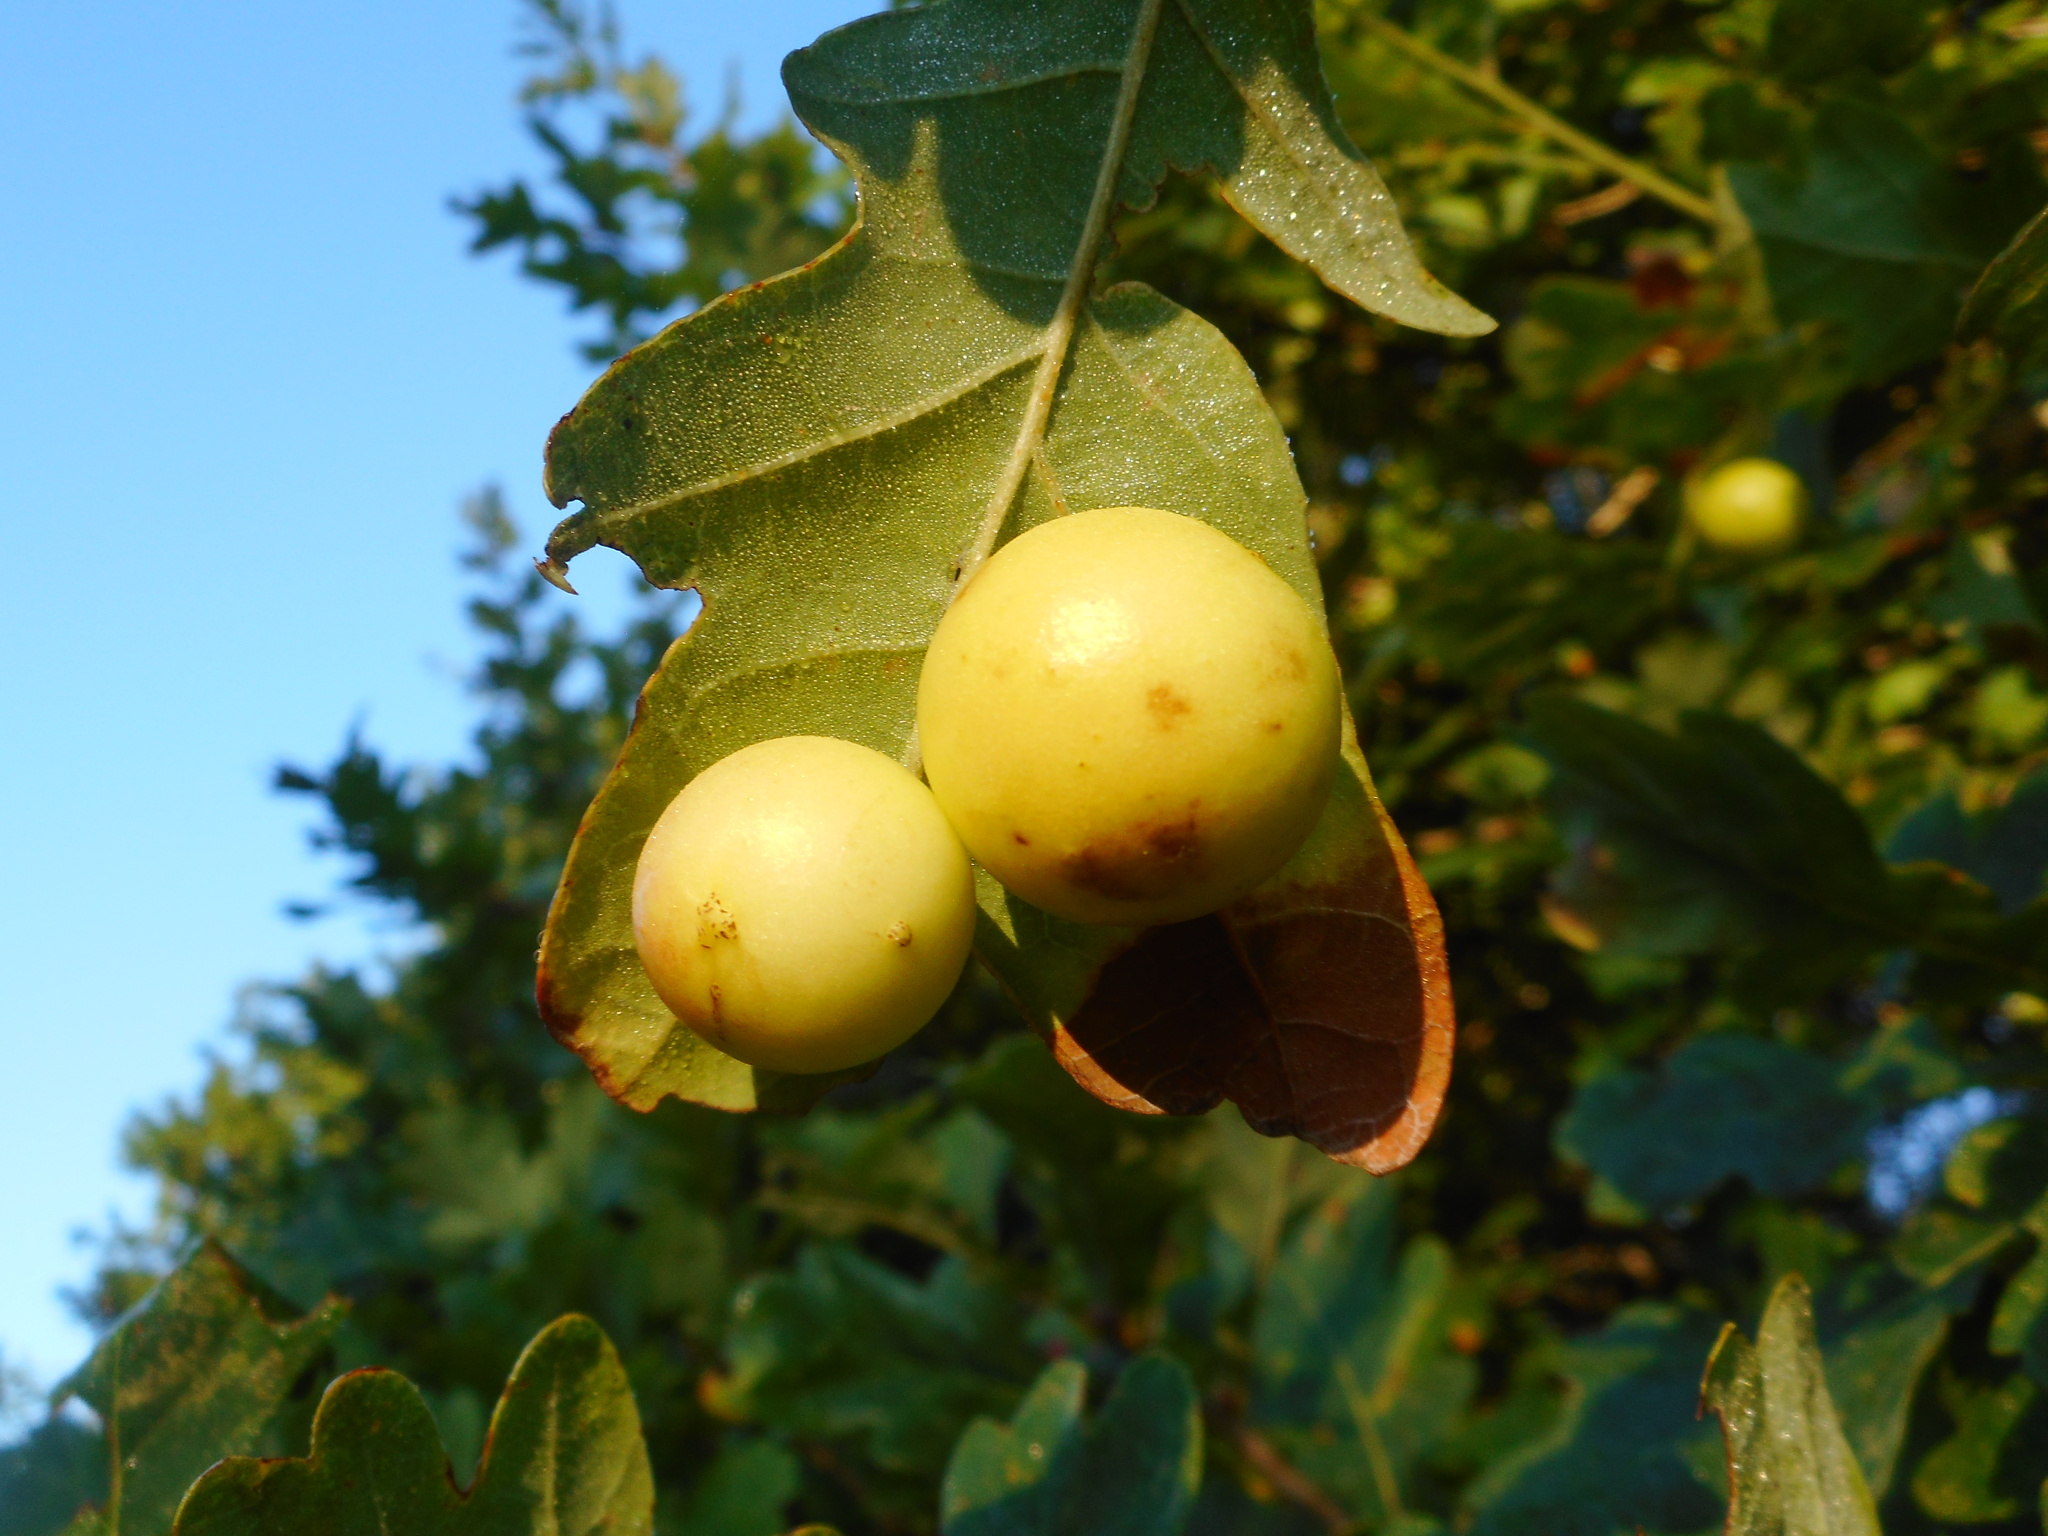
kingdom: Animalia
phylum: Arthropoda
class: Insecta
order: Hymenoptera
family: Cynipidae
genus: Cynips
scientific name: Cynips quercusfolii
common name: Cherry gall
